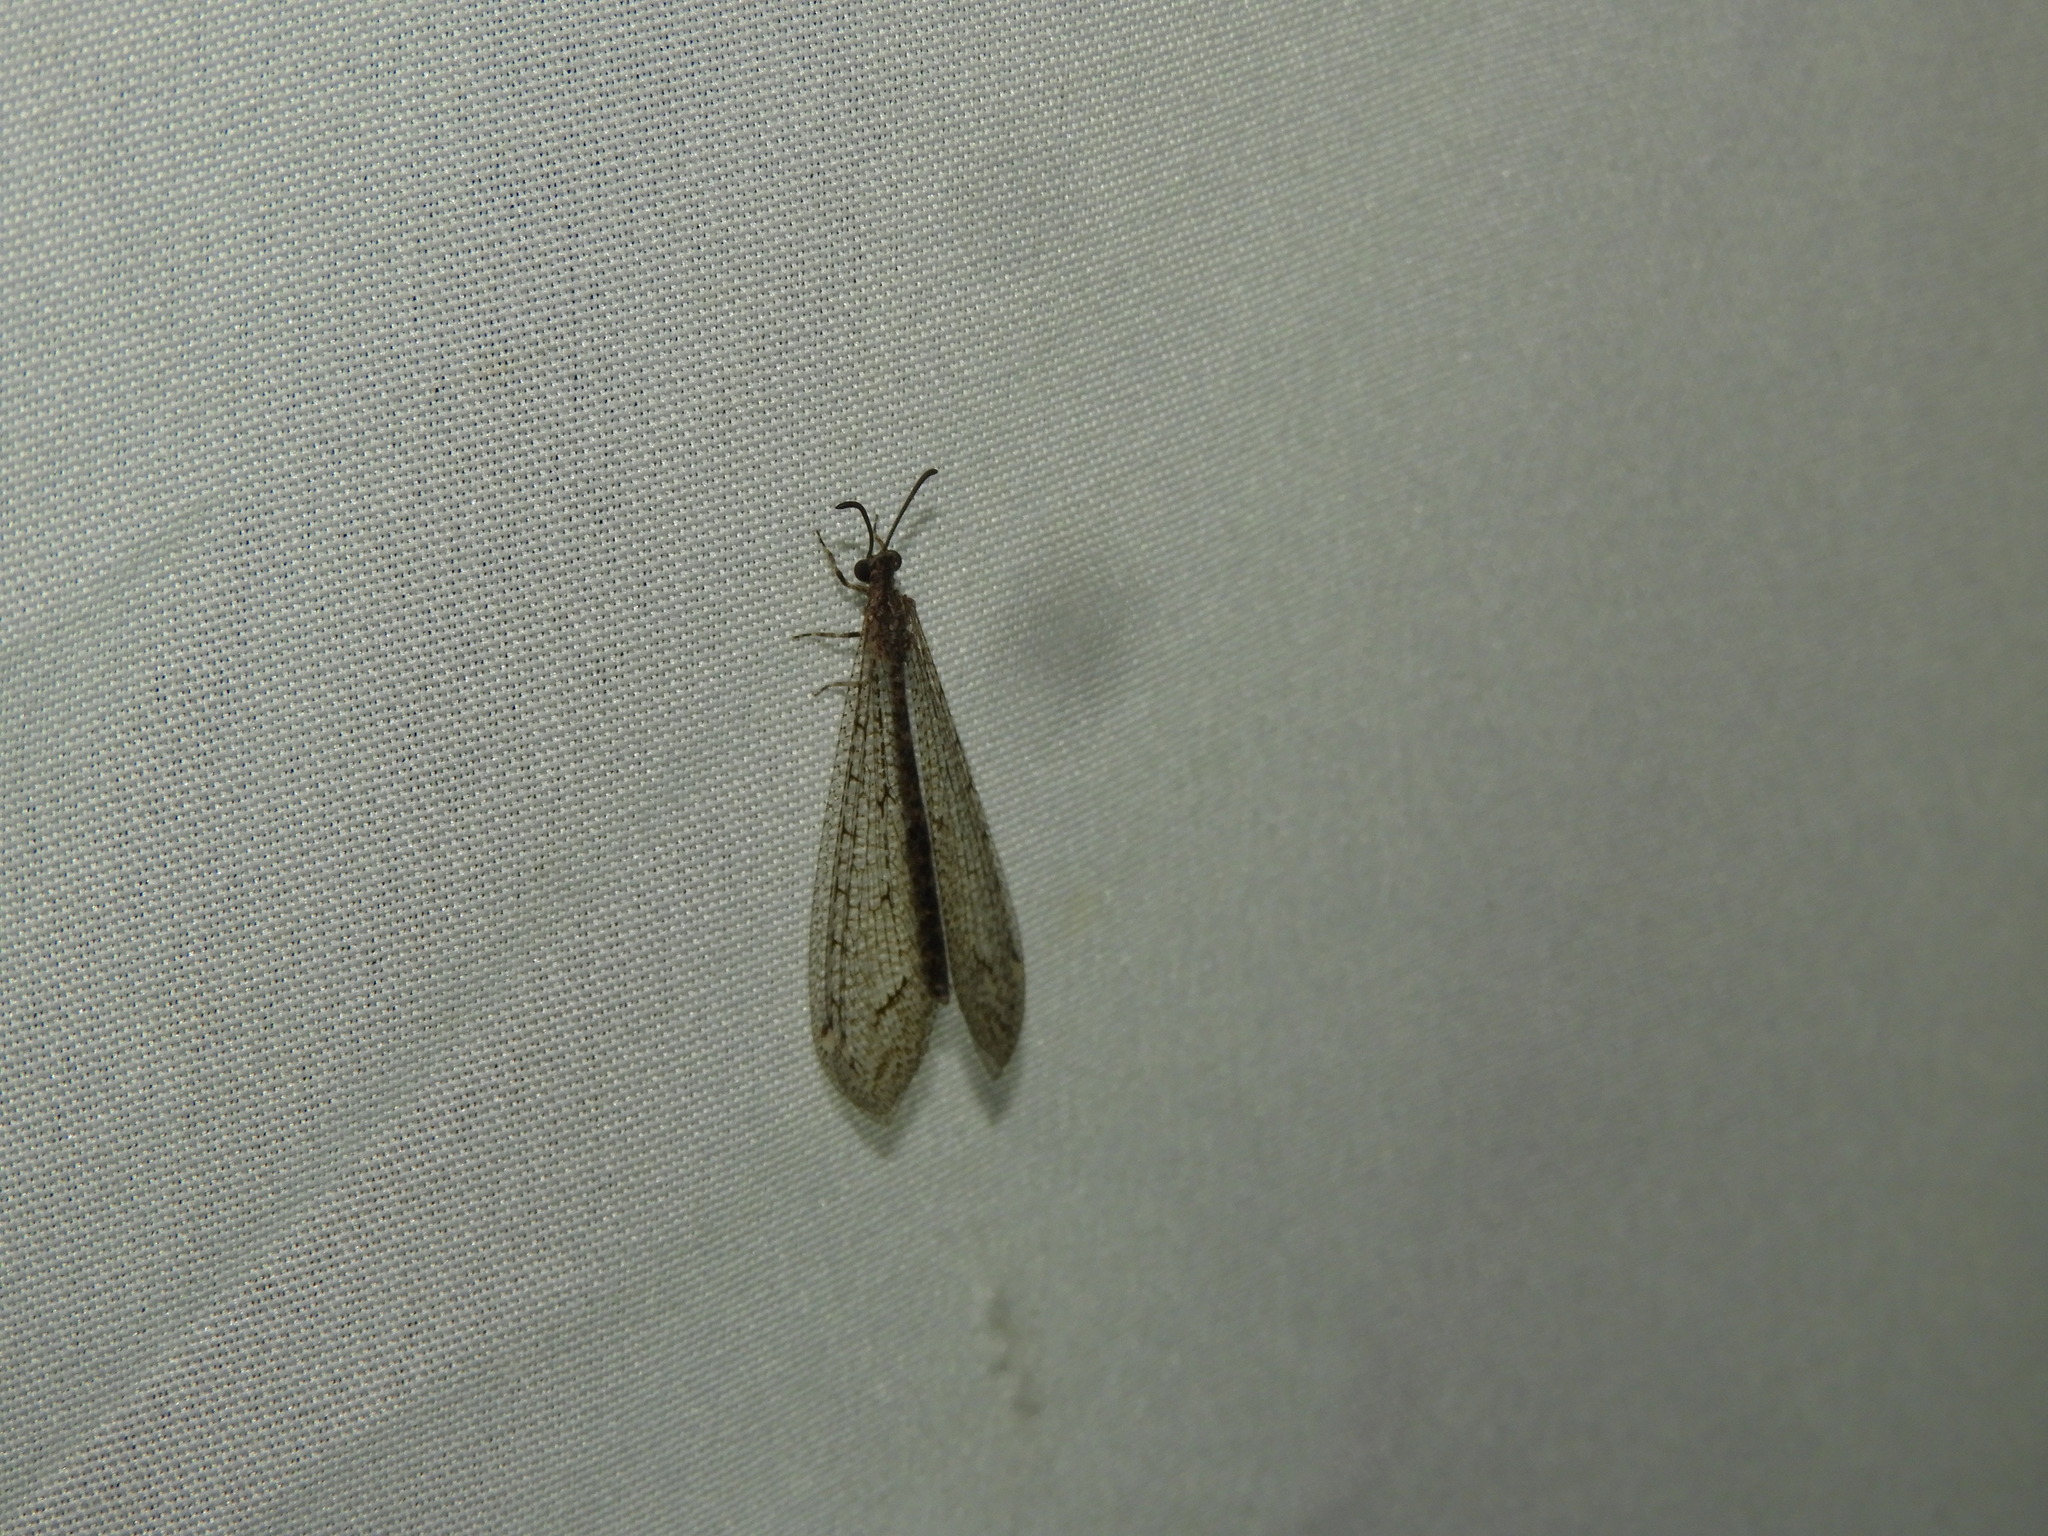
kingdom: Animalia
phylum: Arthropoda
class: Insecta
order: Neuroptera
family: Myrmeleontidae
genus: Atricholeon
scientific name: Atricholeon tuberculatus
